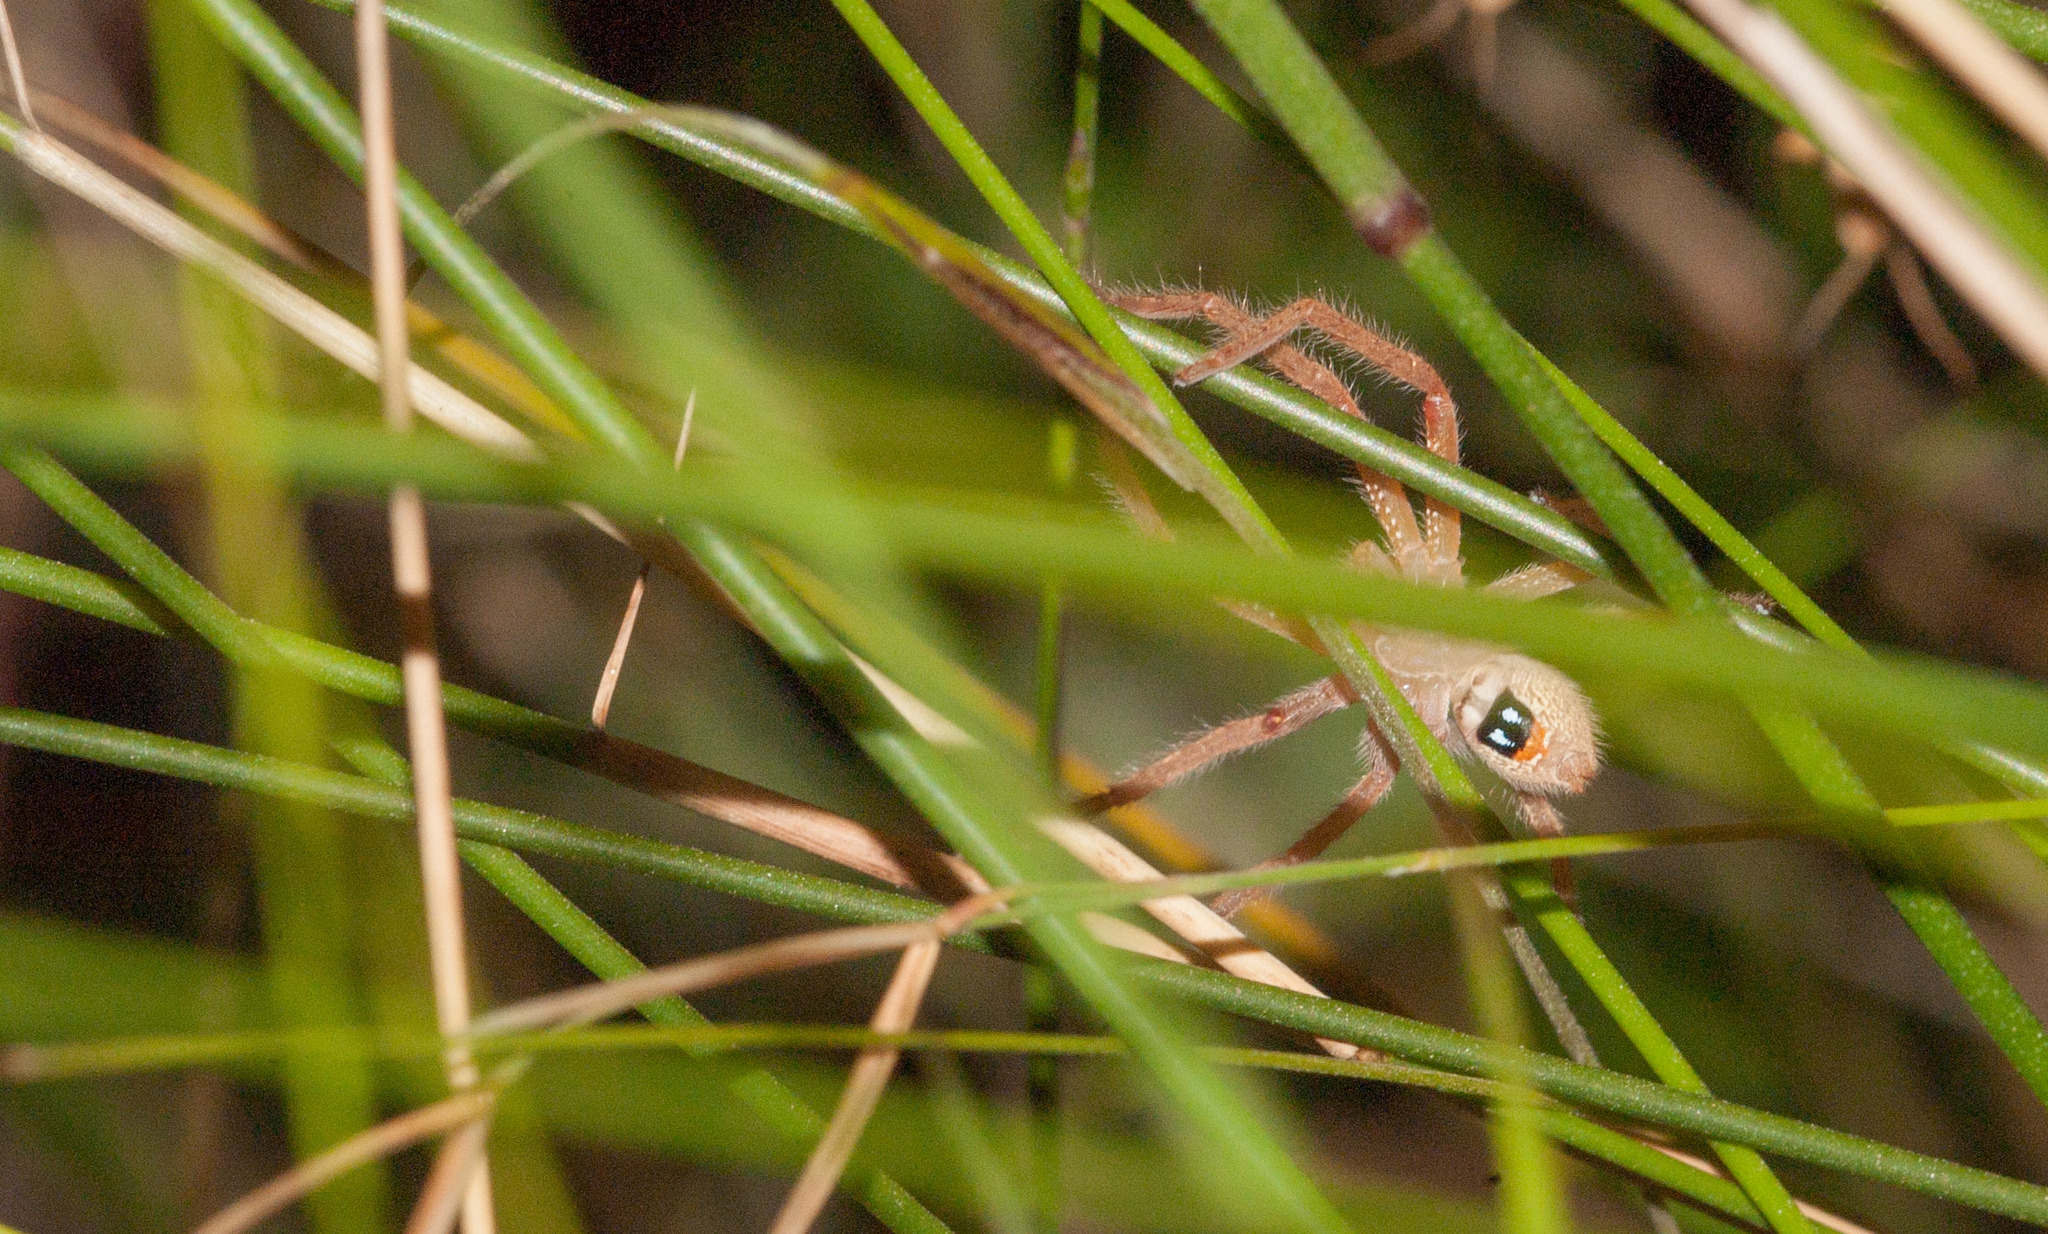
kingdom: Animalia
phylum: Arthropoda
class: Arachnida
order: Araneae
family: Sparassidae
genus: Neosparassus
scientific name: Neosparassus diana
